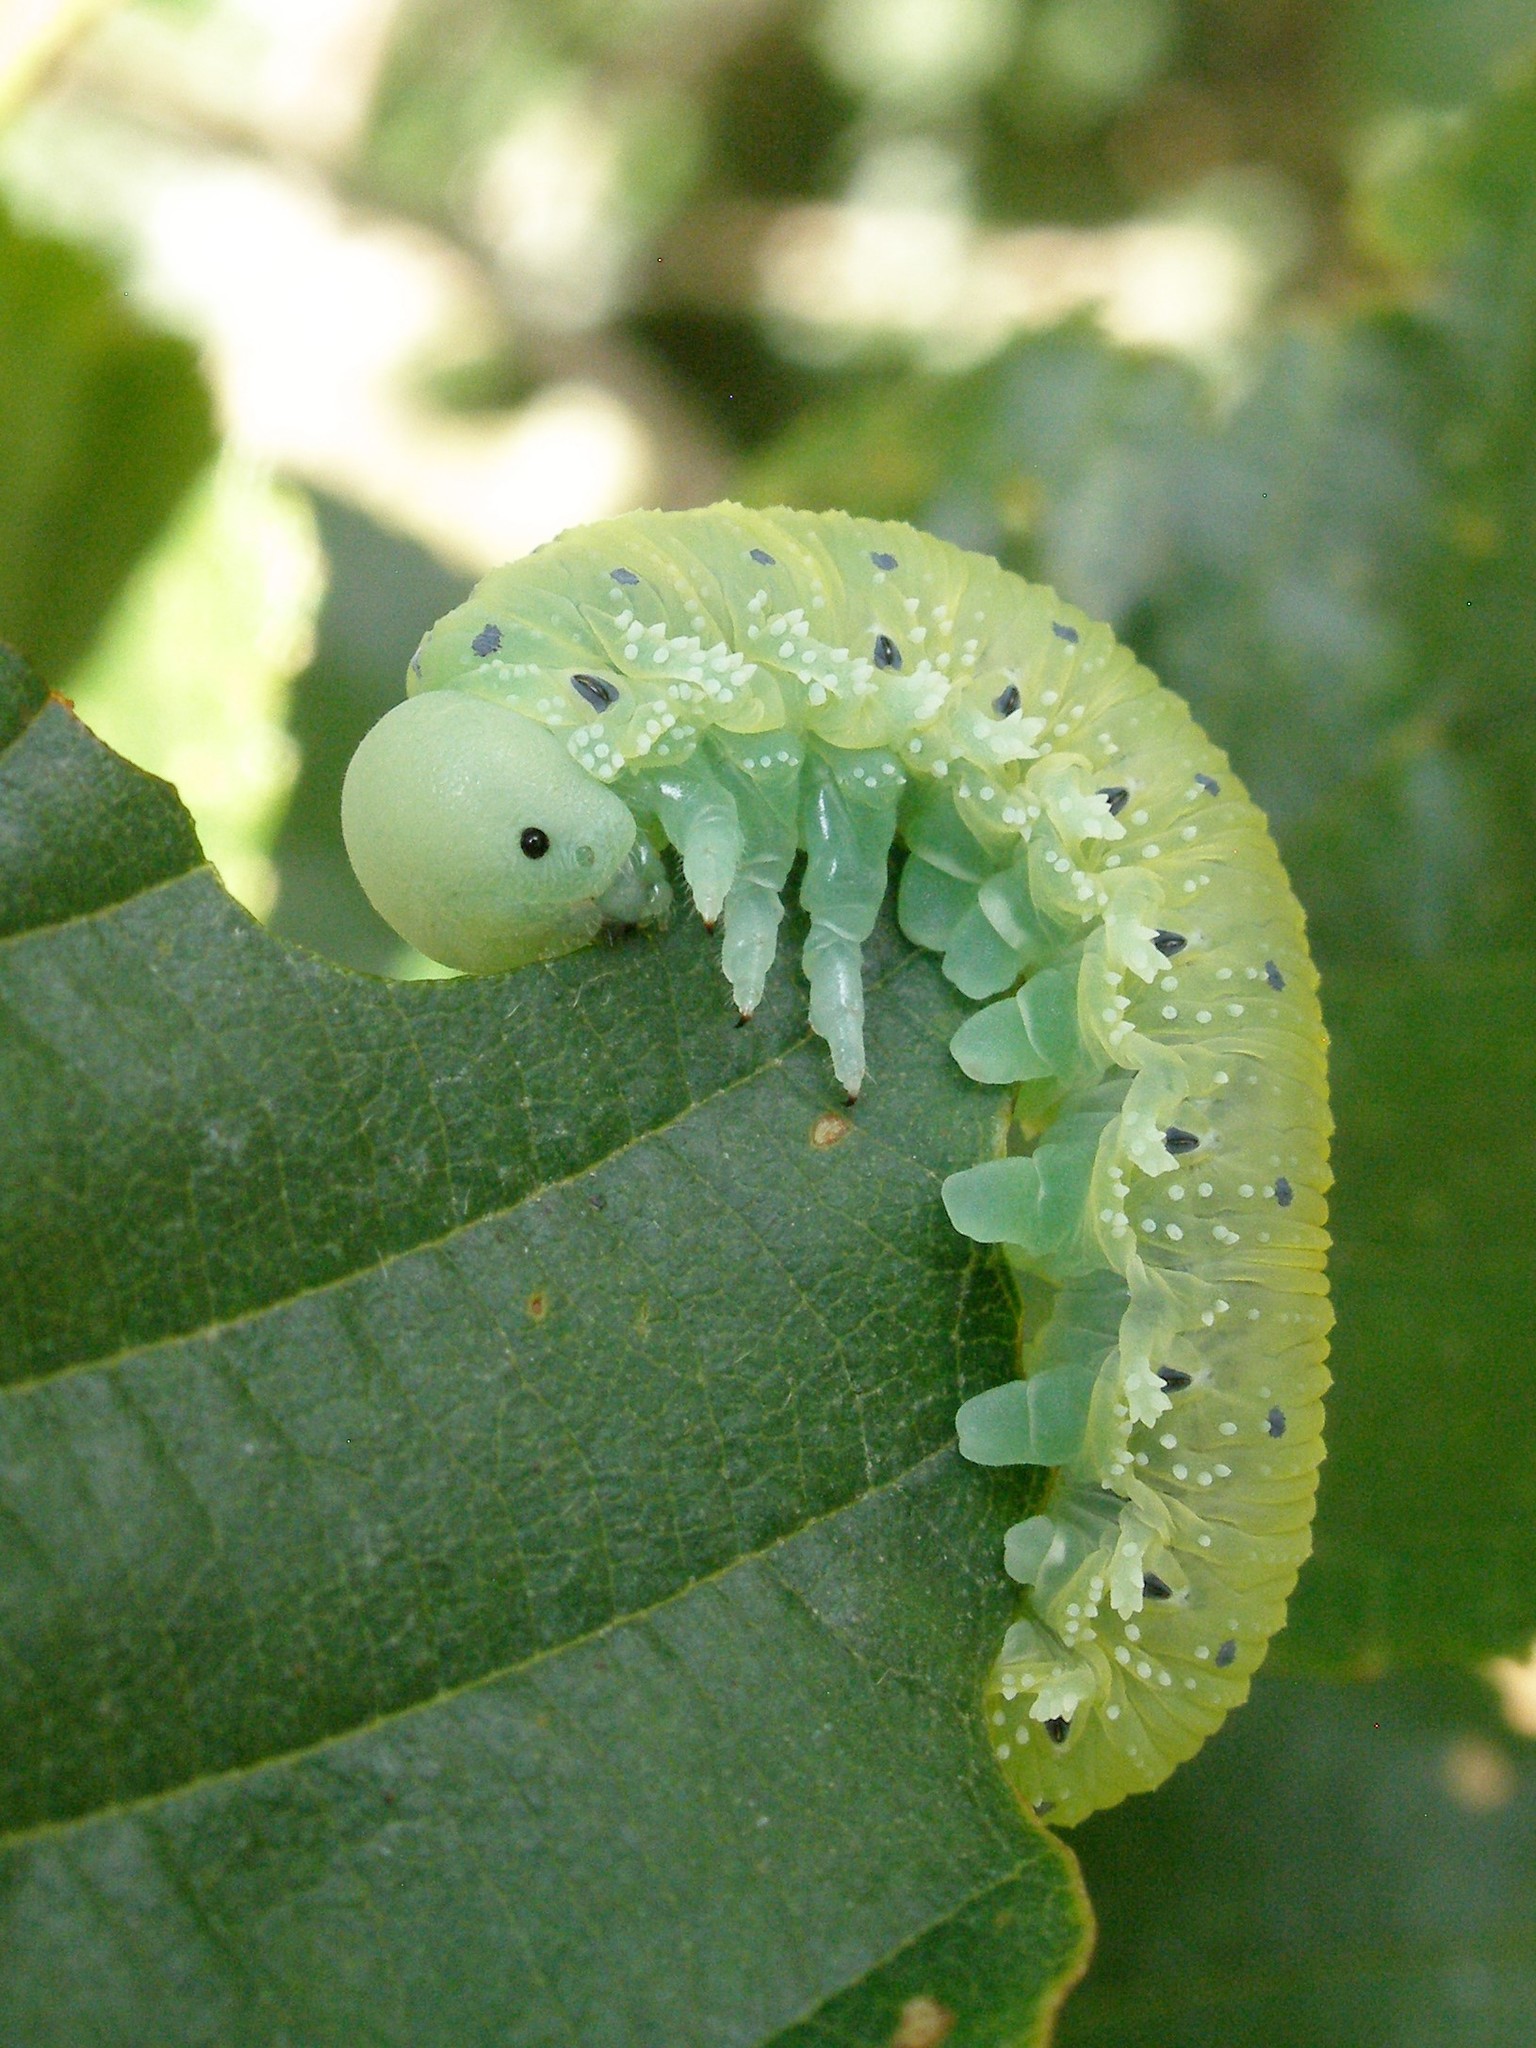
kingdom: Animalia
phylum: Arthropoda
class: Insecta
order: Hymenoptera
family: Cimbicidae
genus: Cimbex
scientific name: Cimbex connatus
